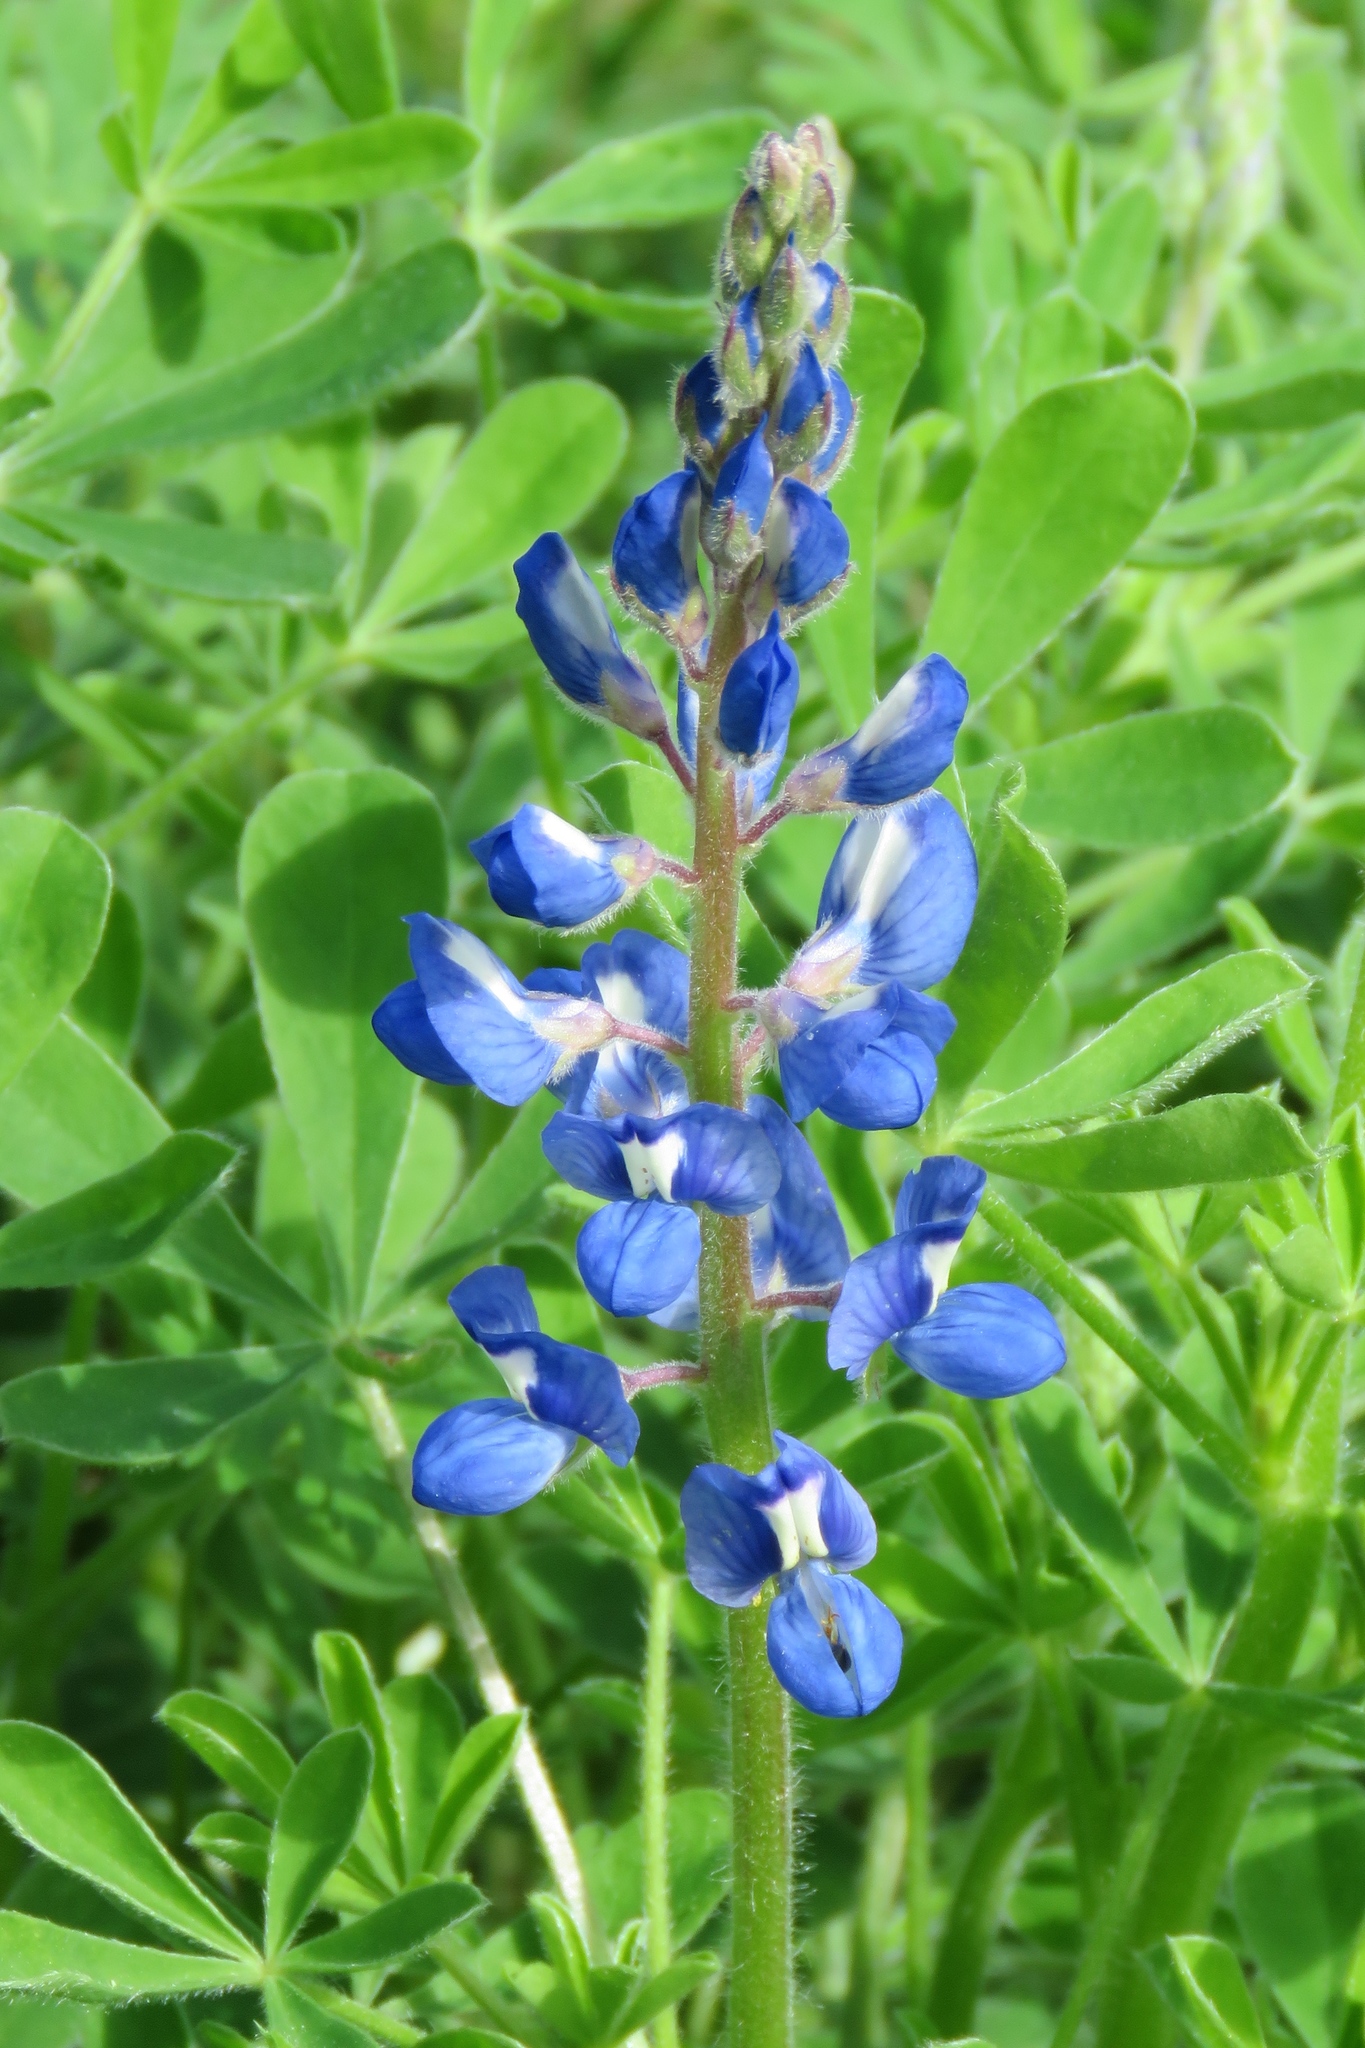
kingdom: Plantae
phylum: Tracheophyta
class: Magnoliopsida
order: Fabales
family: Fabaceae
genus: Lupinus
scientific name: Lupinus subcarnosus
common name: Texas bluebonnet
